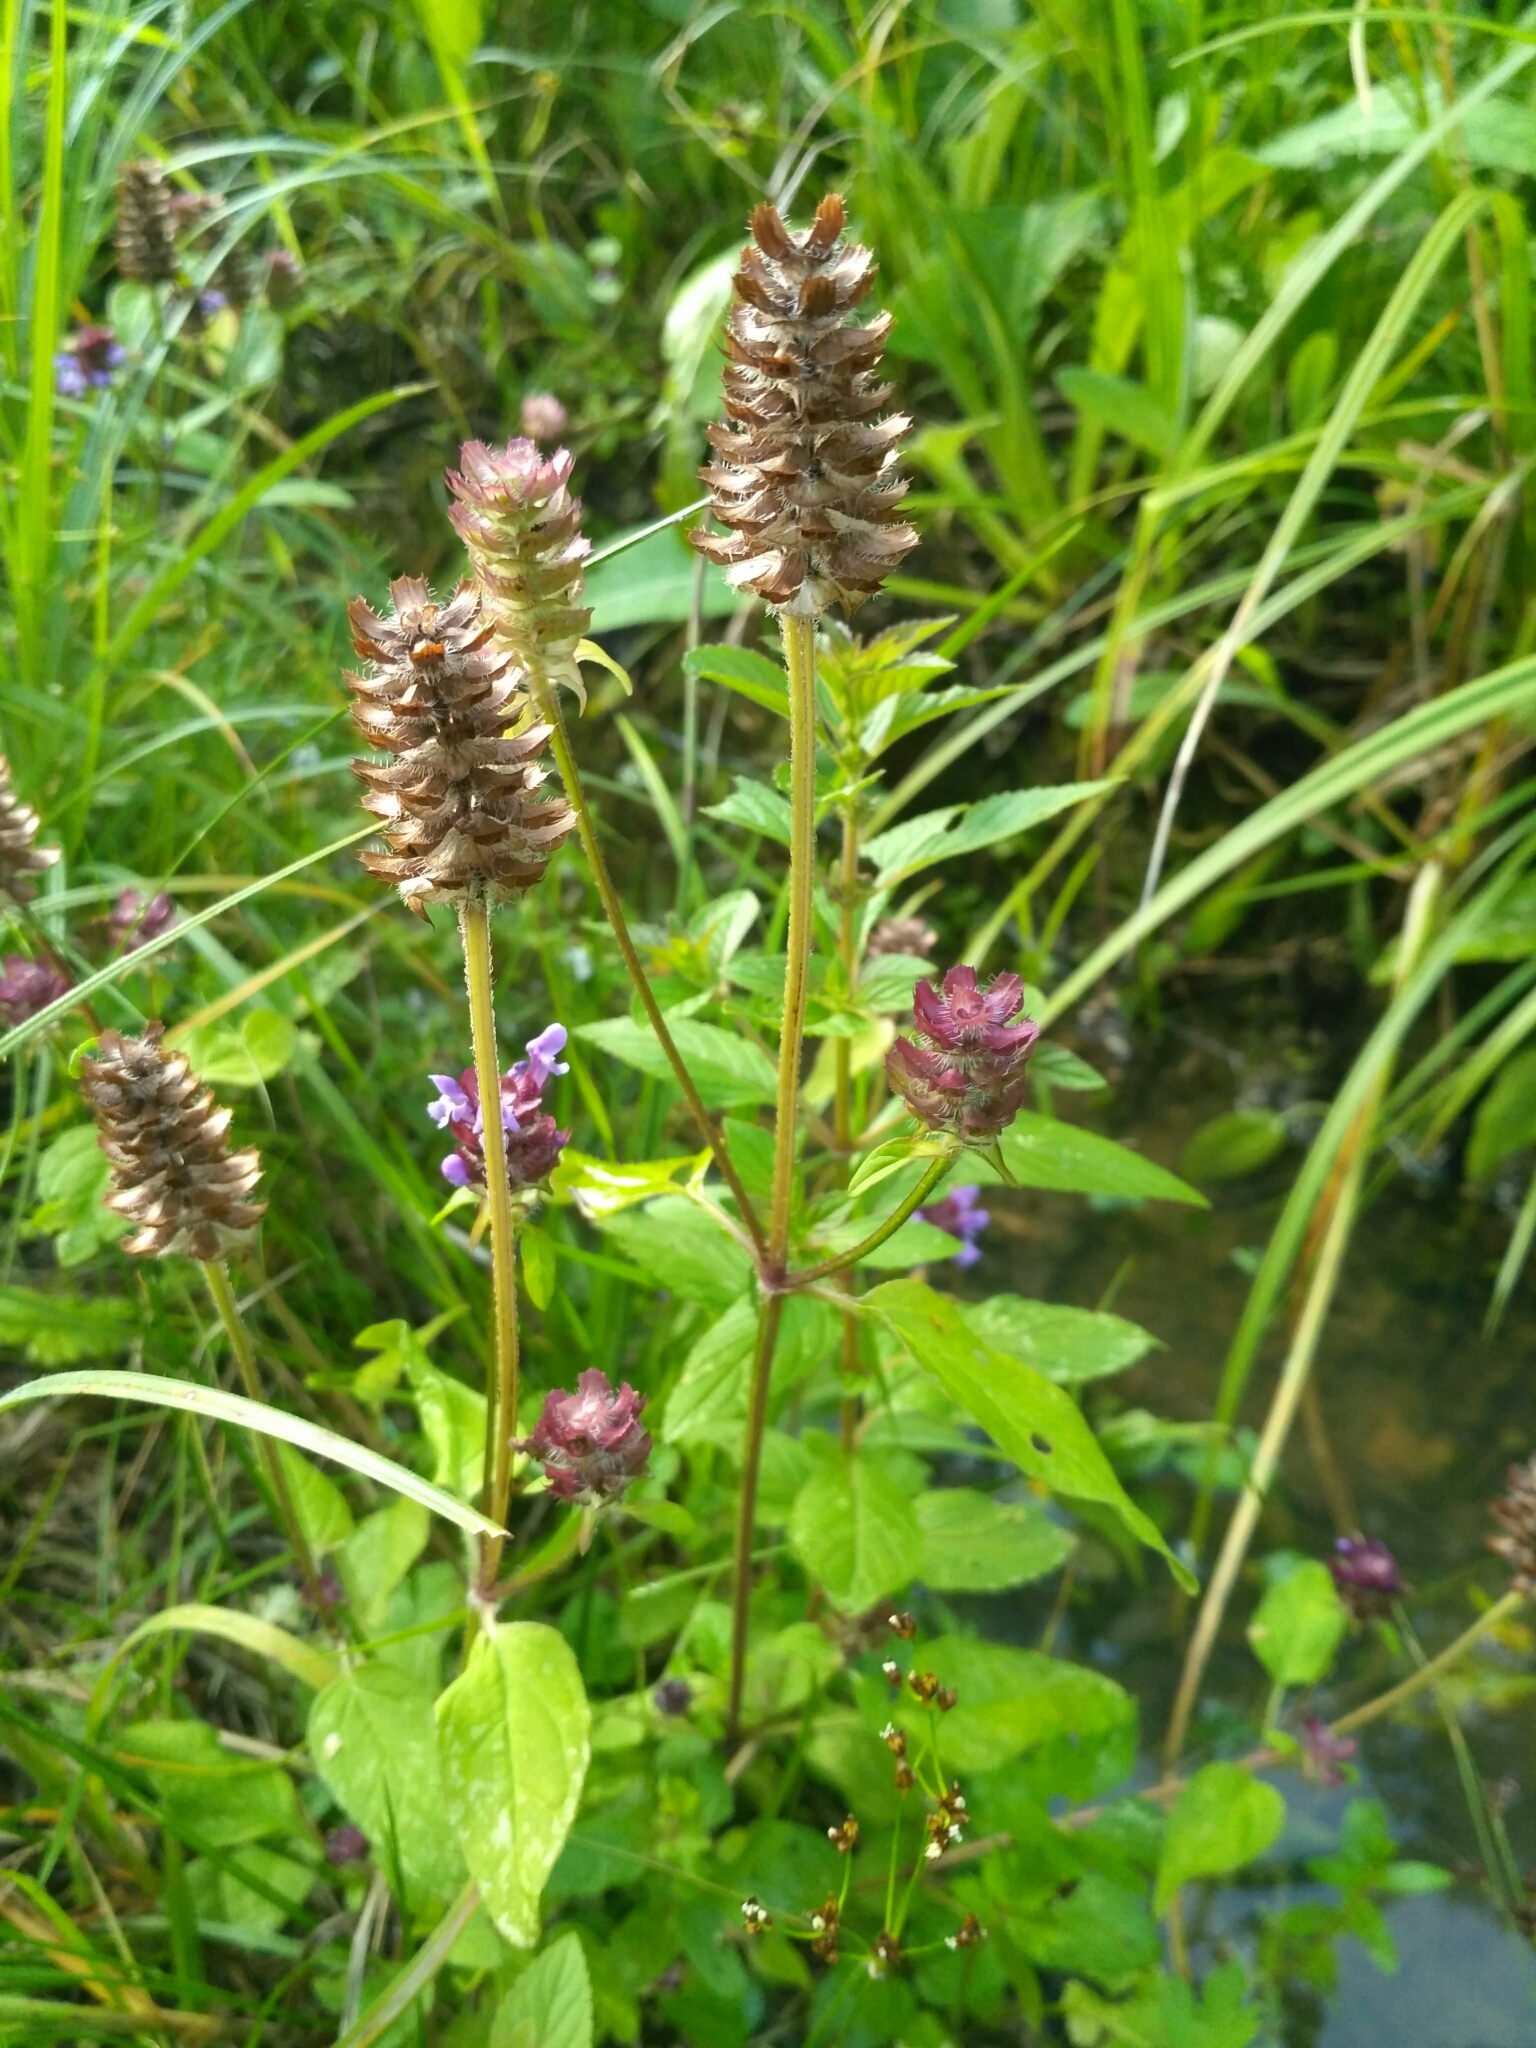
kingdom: Plantae
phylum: Tracheophyta
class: Magnoliopsida
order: Lamiales
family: Lamiaceae
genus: Prunella
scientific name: Prunella vulgaris
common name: Heal-all
